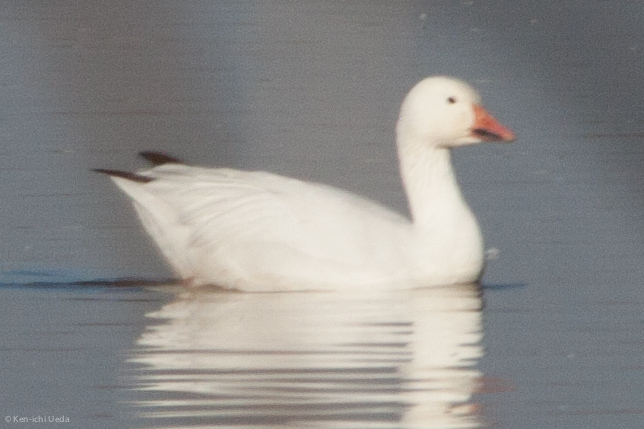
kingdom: Animalia
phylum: Chordata
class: Aves
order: Anseriformes
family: Anatidae
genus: Anser
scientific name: Anser caerulescens
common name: Snow goose
